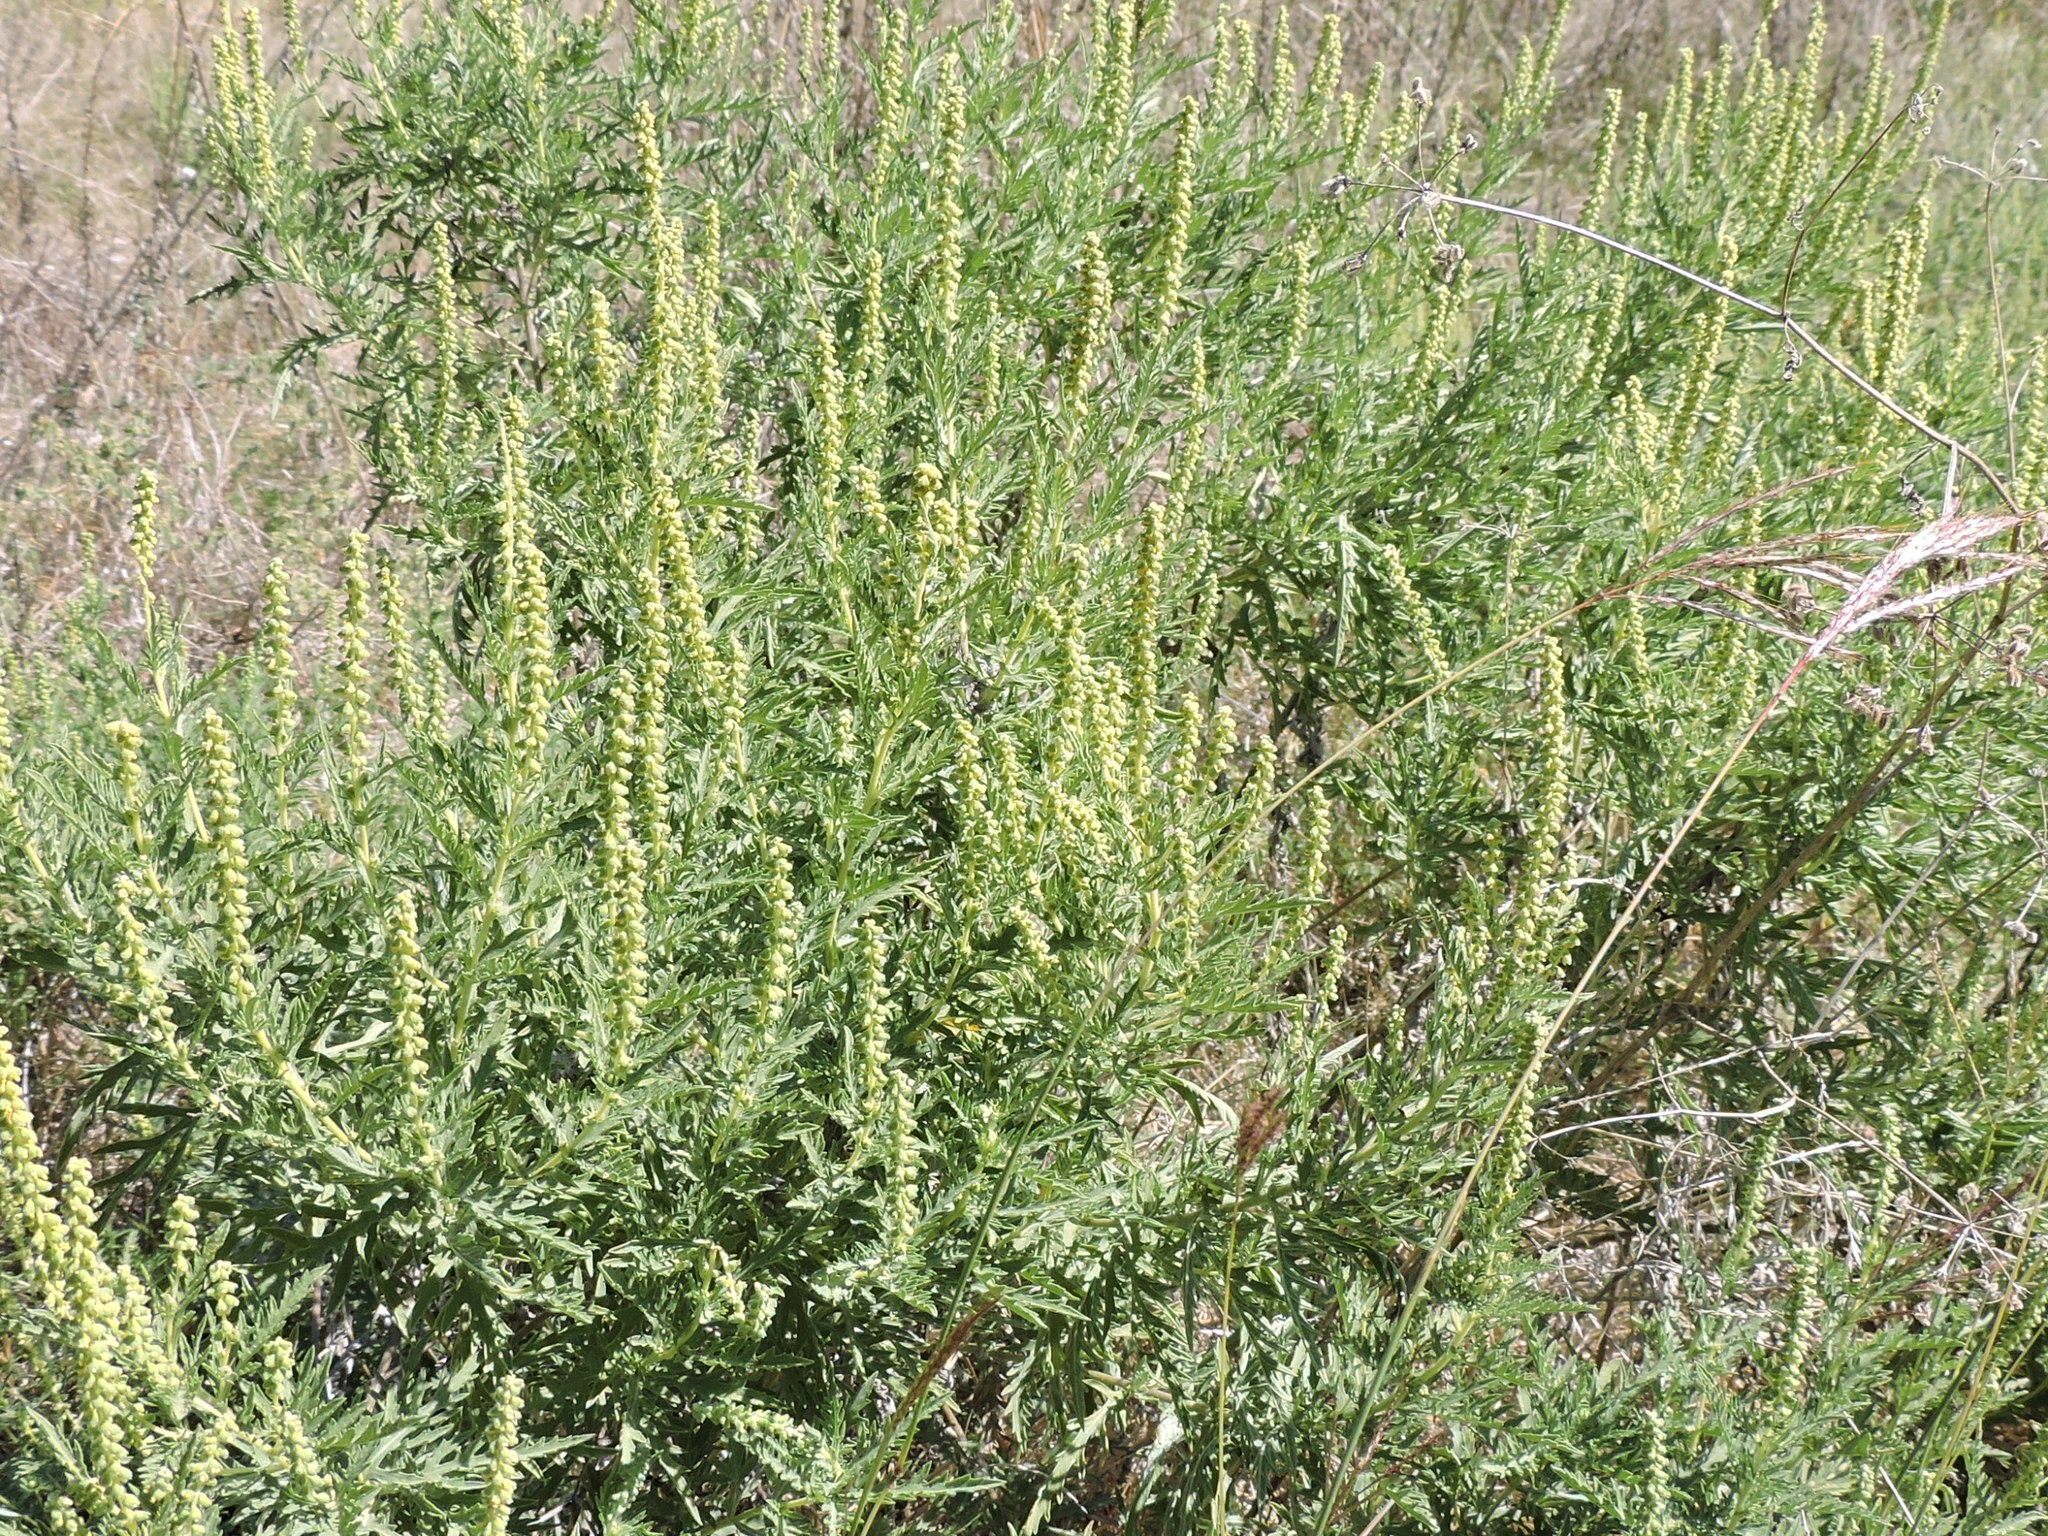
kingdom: Plantae
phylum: Tracheophyta
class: Magnoliopsida
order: Asterales
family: Asteraceae
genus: Ambrosia
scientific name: Ambrosia psilostachya
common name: Perennial ragweed
